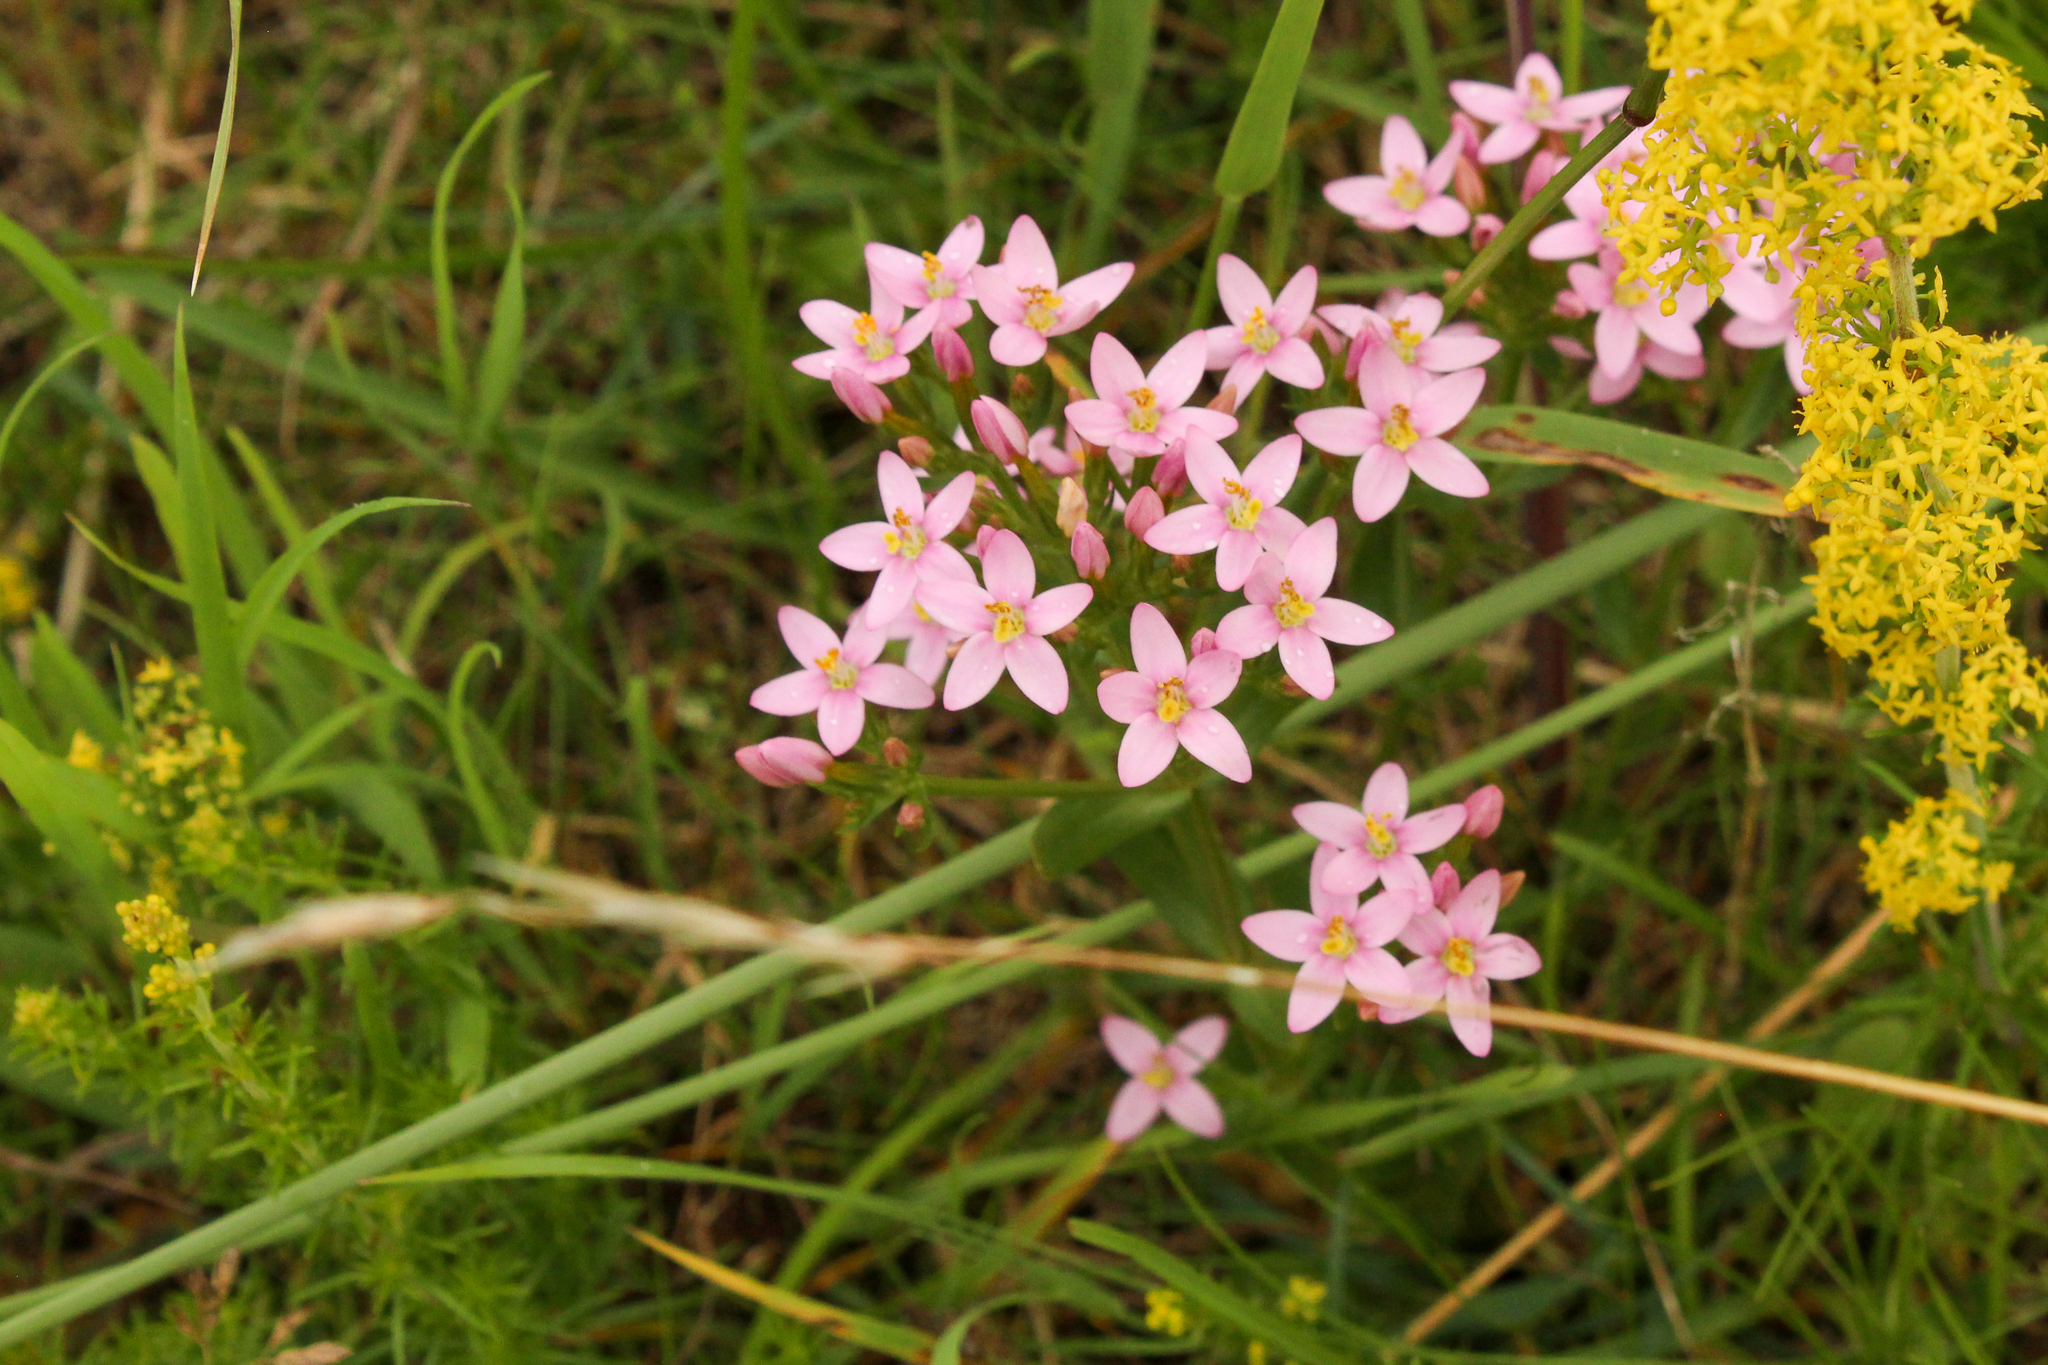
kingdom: Plantae
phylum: Tracheophyta
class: Magnoliopsida
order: Gentianales
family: Gentianaceae
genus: Centaurium
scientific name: Centaurium erythraea
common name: Common centaury
